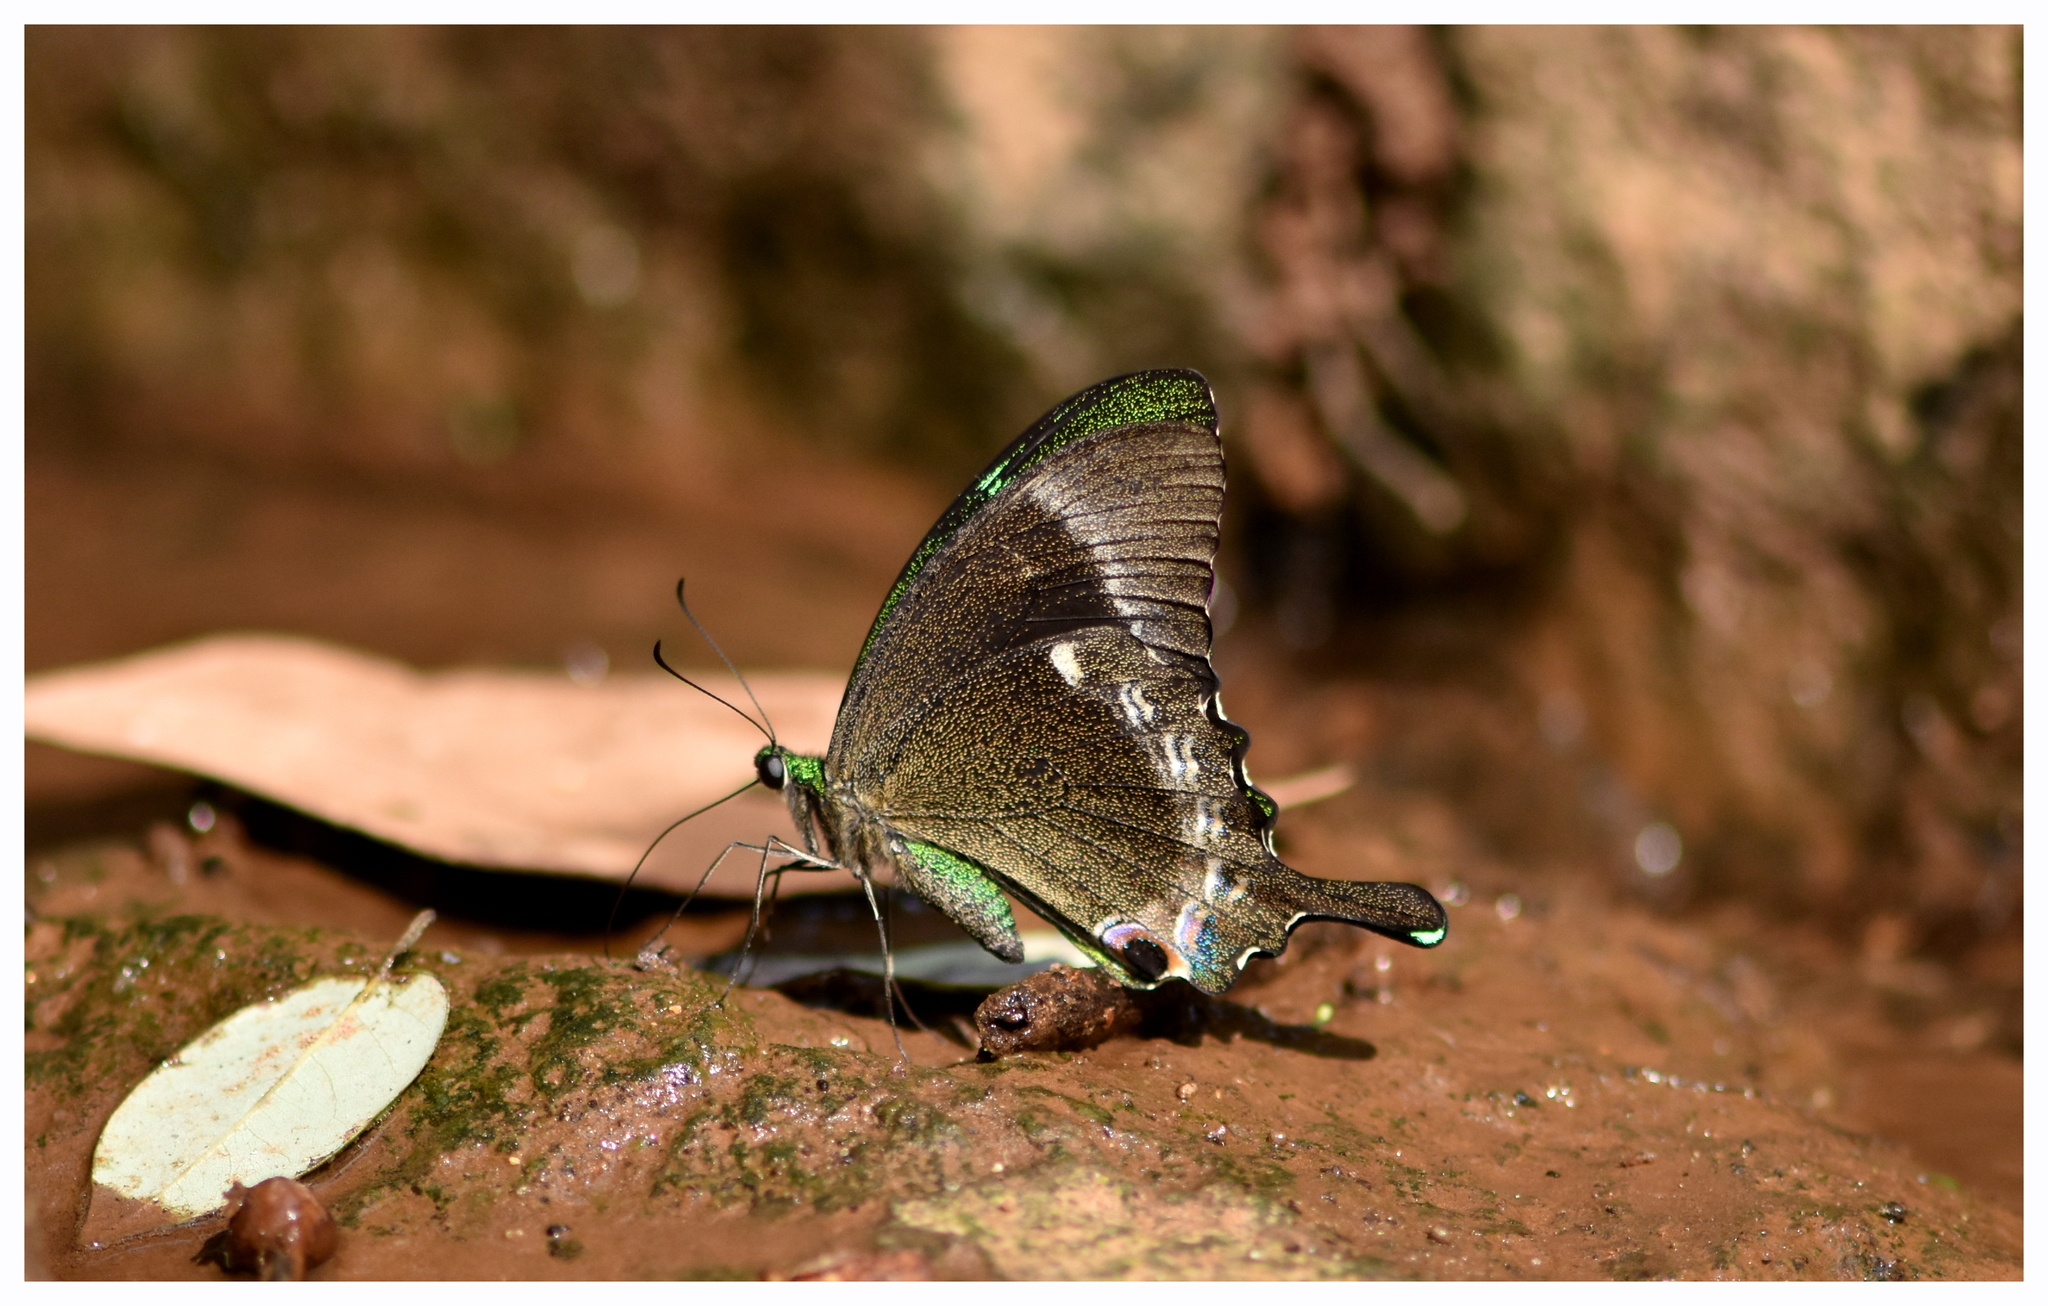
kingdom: Animalia
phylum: Arthropoda
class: Insecta
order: Lepidoptera
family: Papilionidae
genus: Papilio
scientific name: Papilio crino
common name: Common banded peacock
